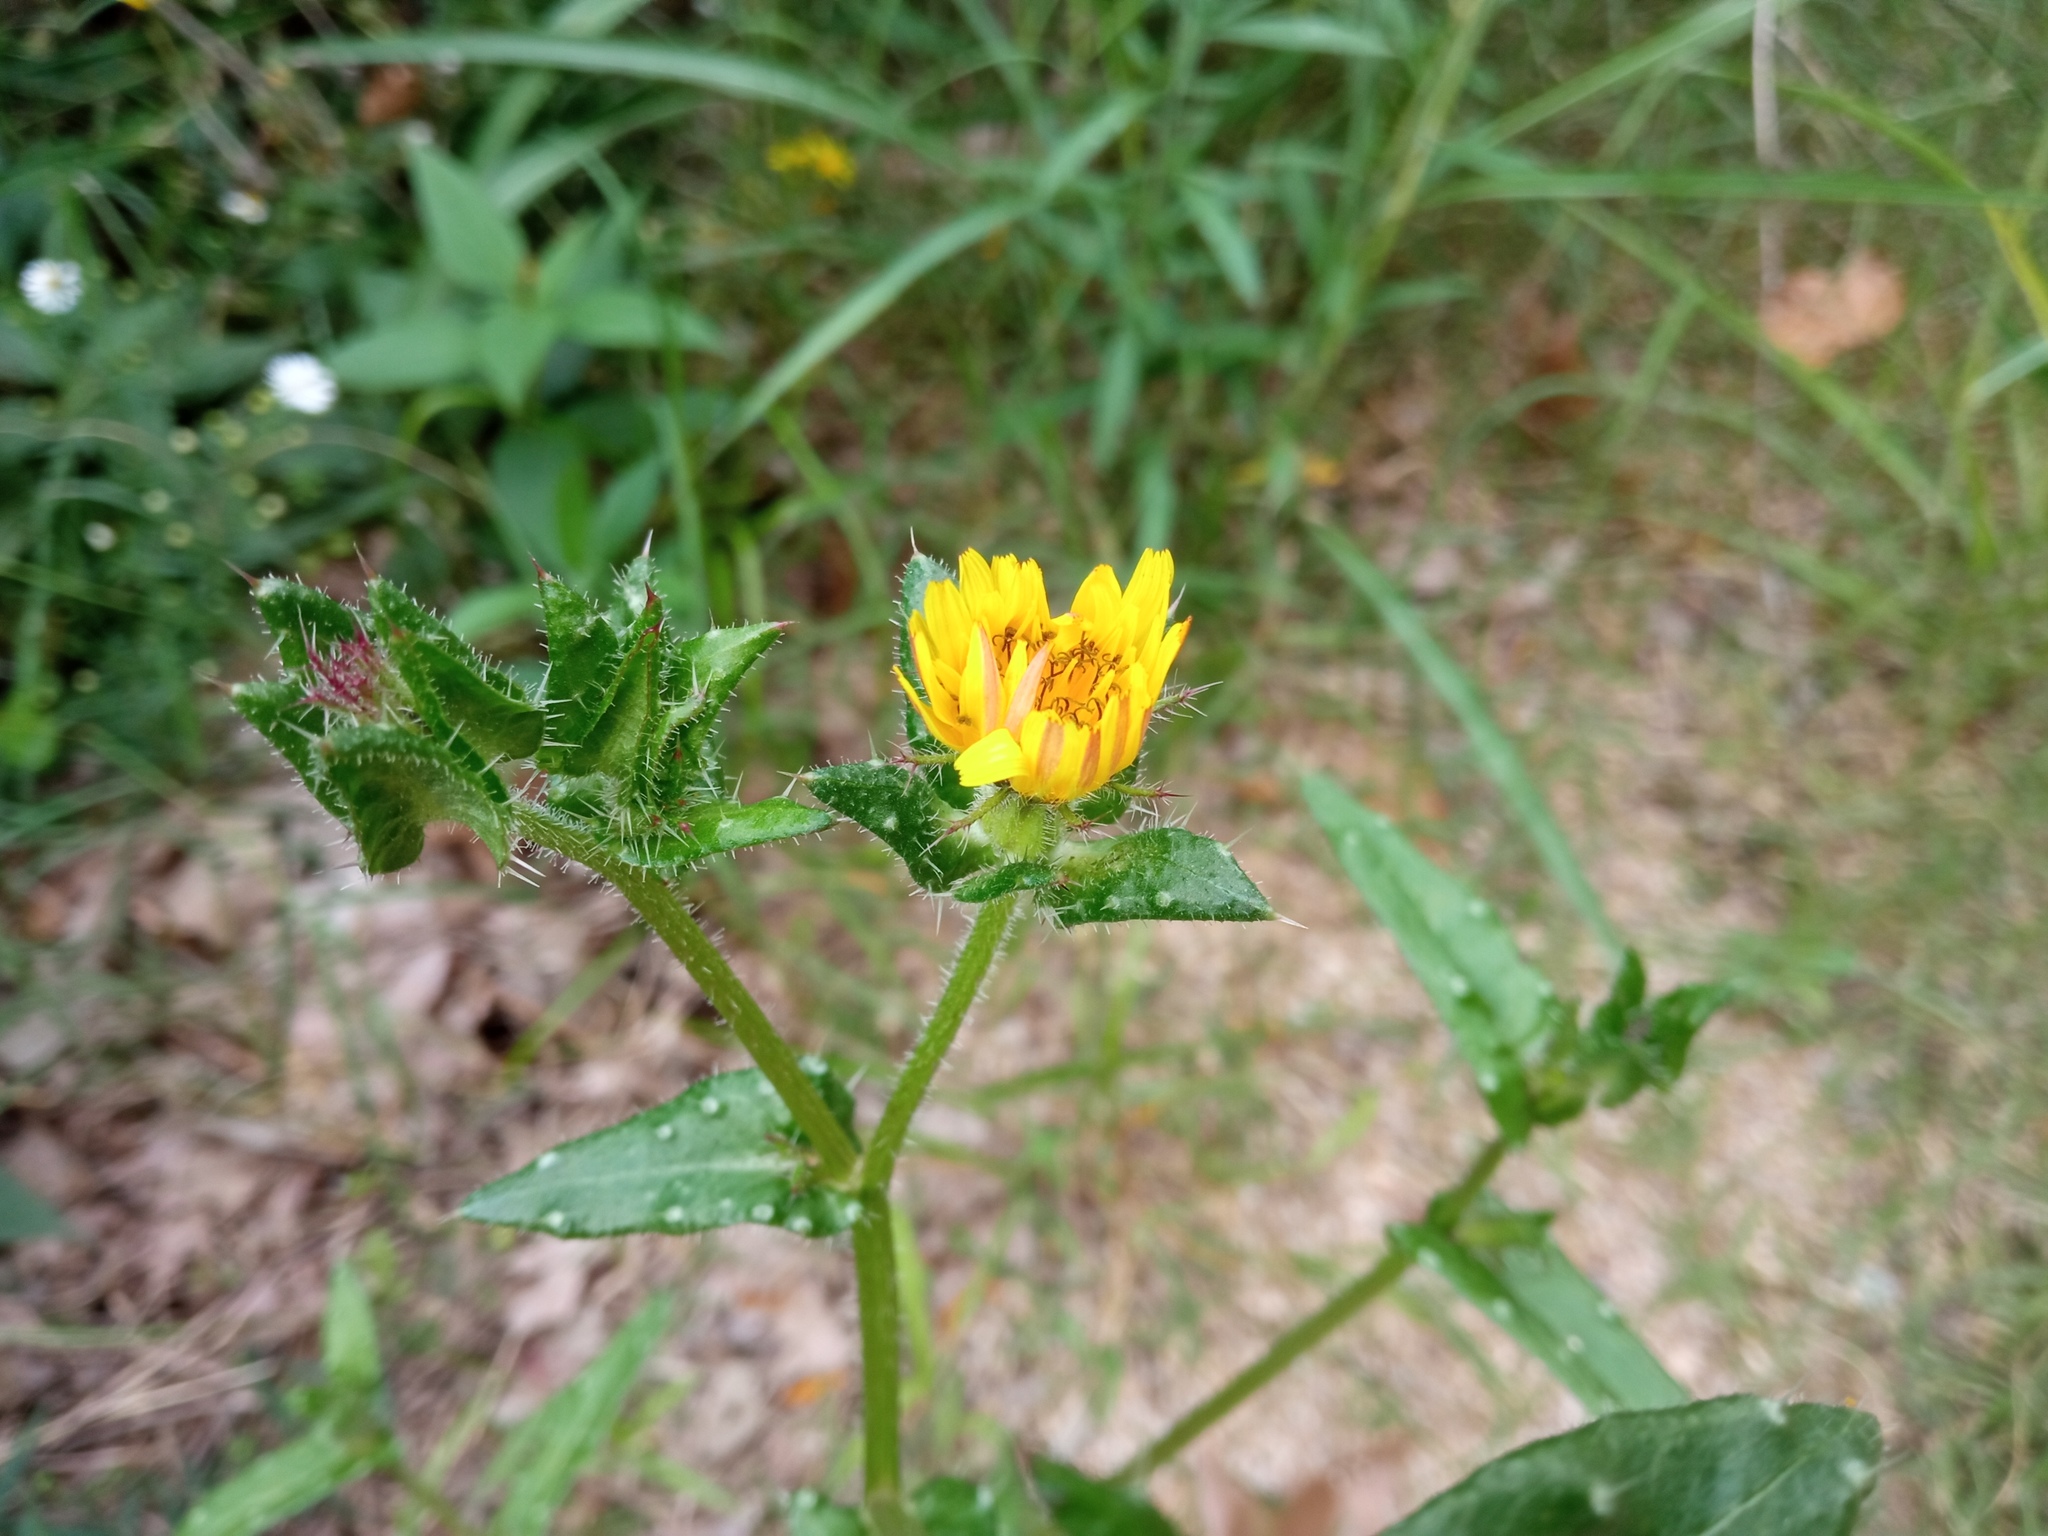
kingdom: Plantae
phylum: Tracheophyta
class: Magnoliopsida
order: Asterales
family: Asteraceae
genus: Helminthotheca
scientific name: Helminthotheca echioides
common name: Ox-tongue
